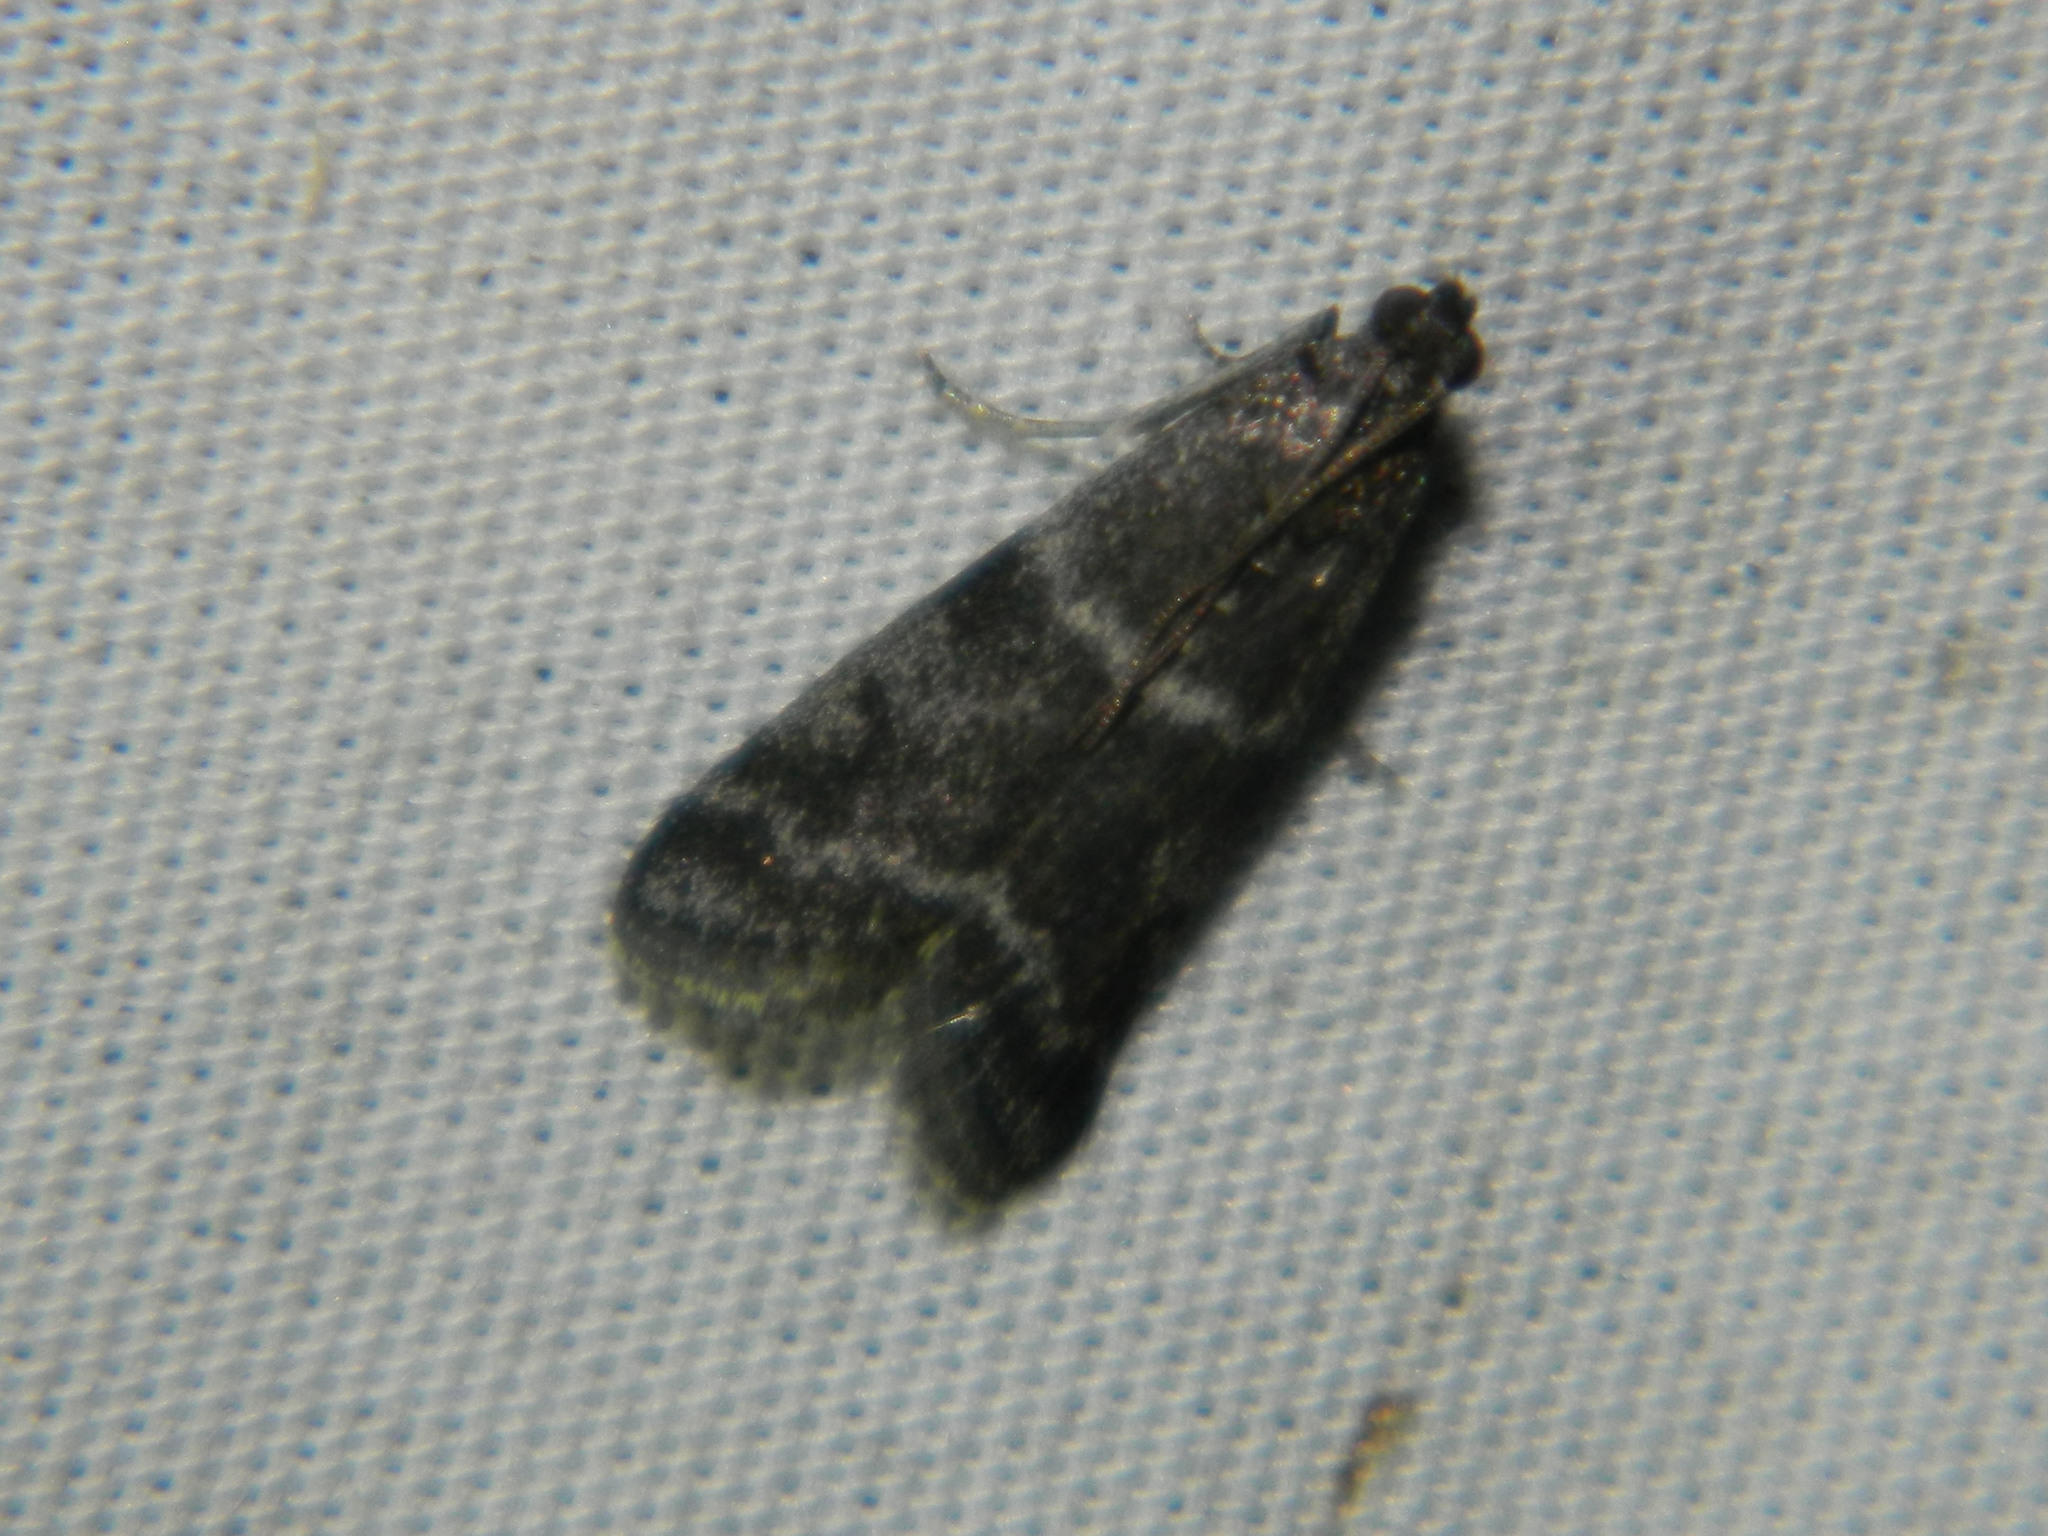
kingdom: Animalia
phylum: Arthropoda
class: Insecta
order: Lepidoptera
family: Pyralidae
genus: Apomyelois
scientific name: Apomyelois bistriatella
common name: Heath knot-horn
